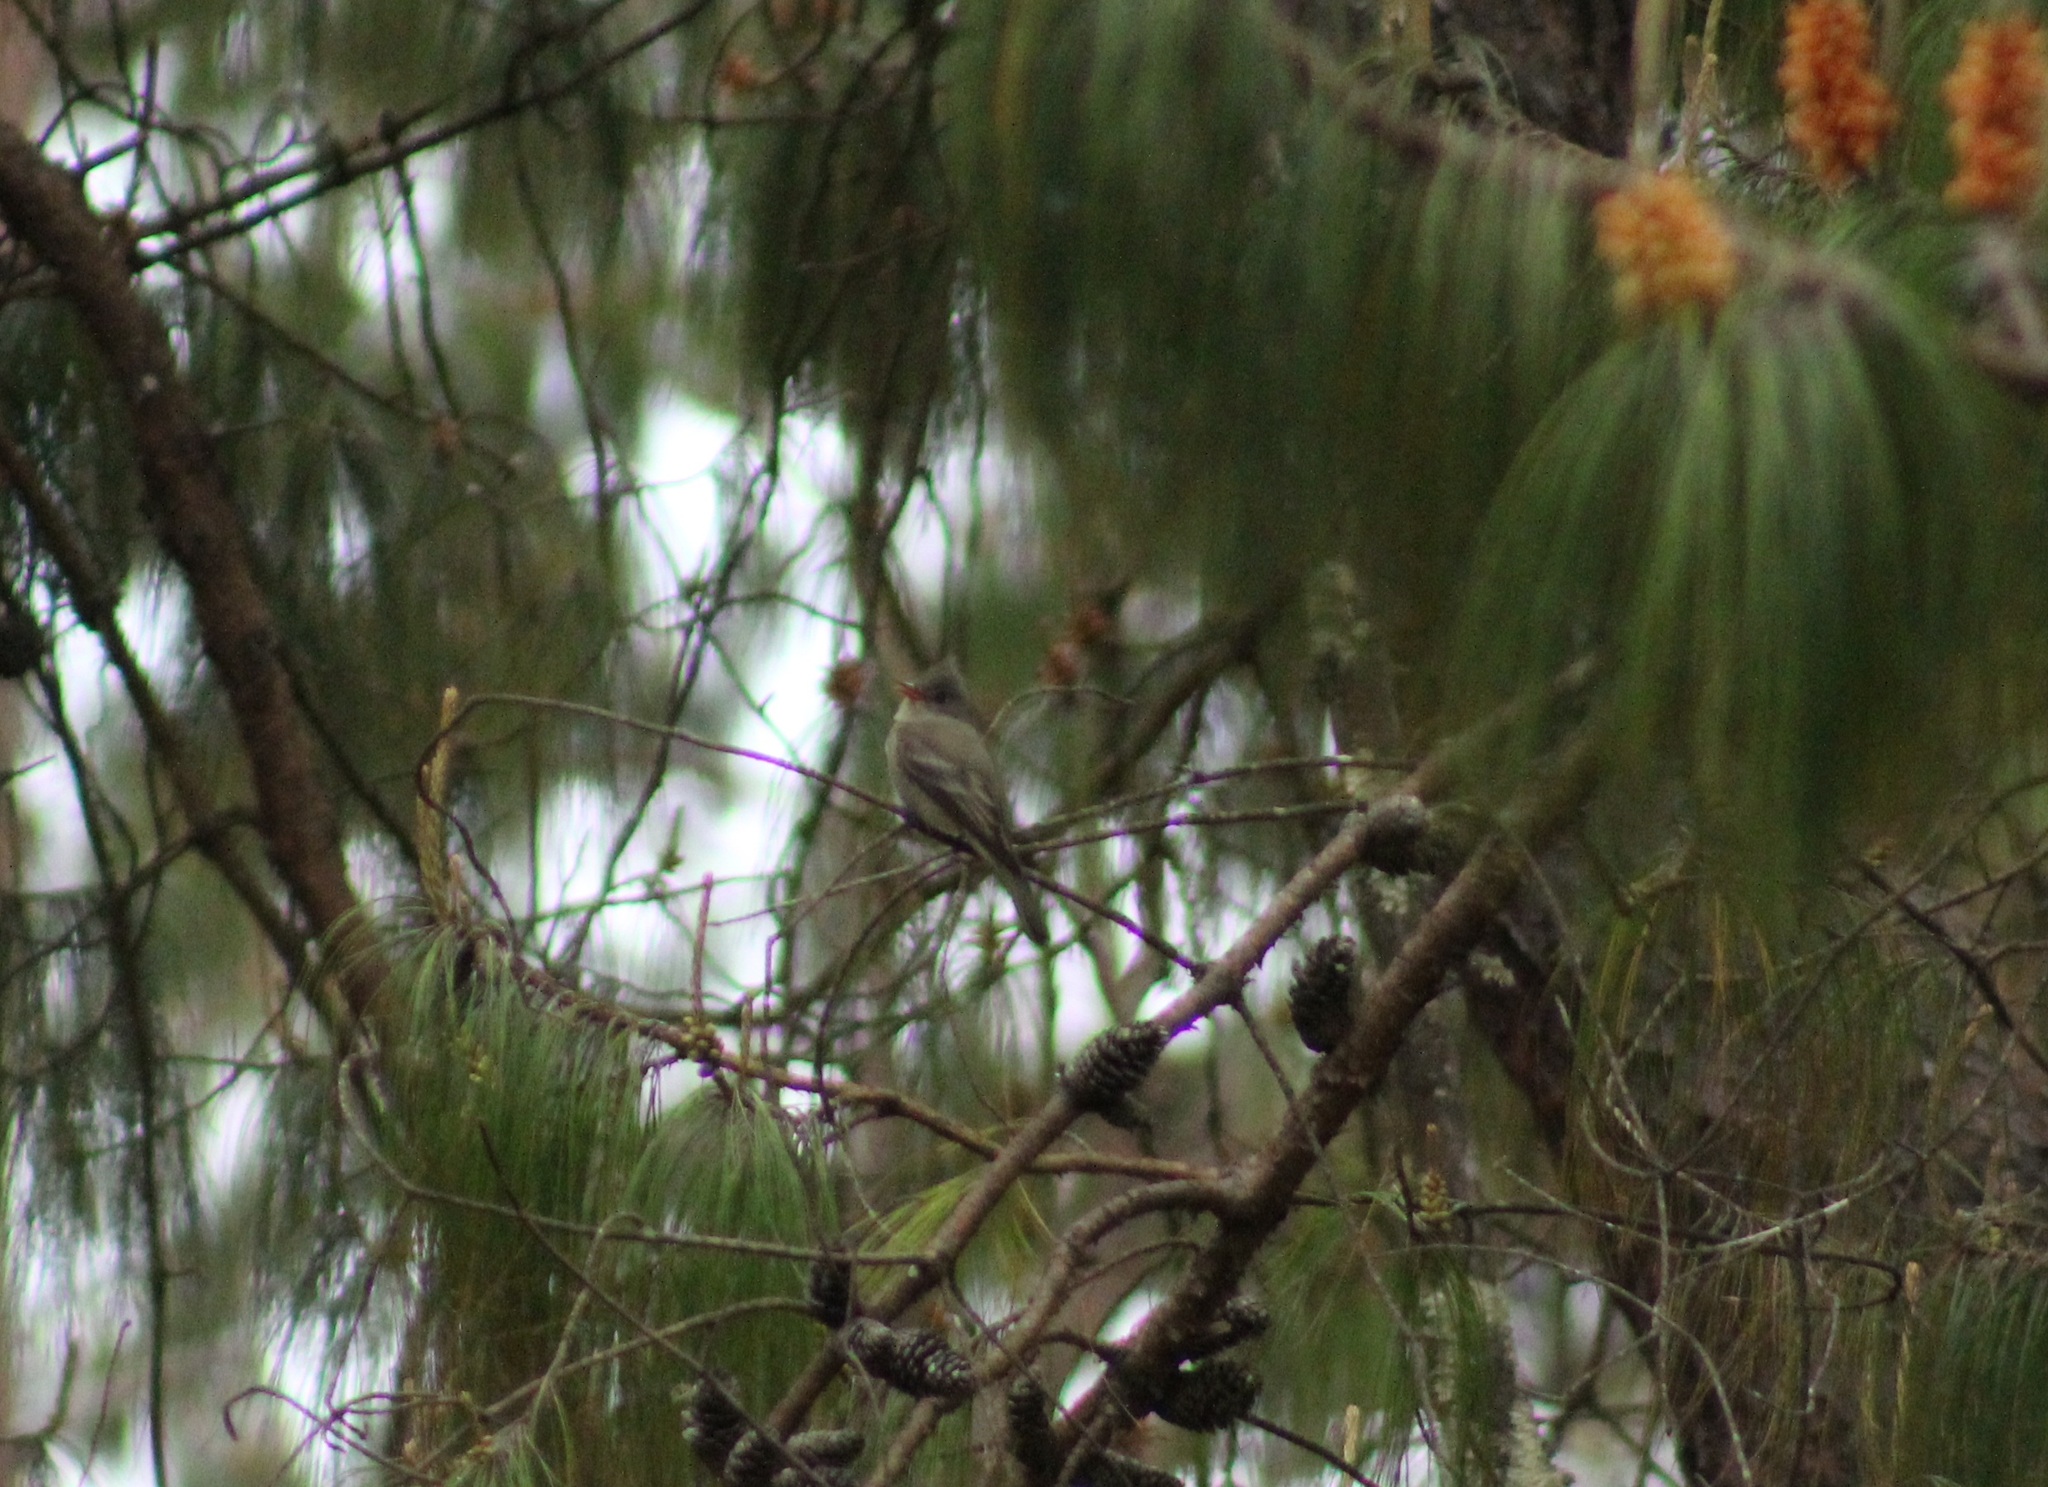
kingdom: Animalia
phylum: Chordata
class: Aves
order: Passeriformes
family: Tyrannidae
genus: Contopus
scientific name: Contopus pertinax
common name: Greater pewee
